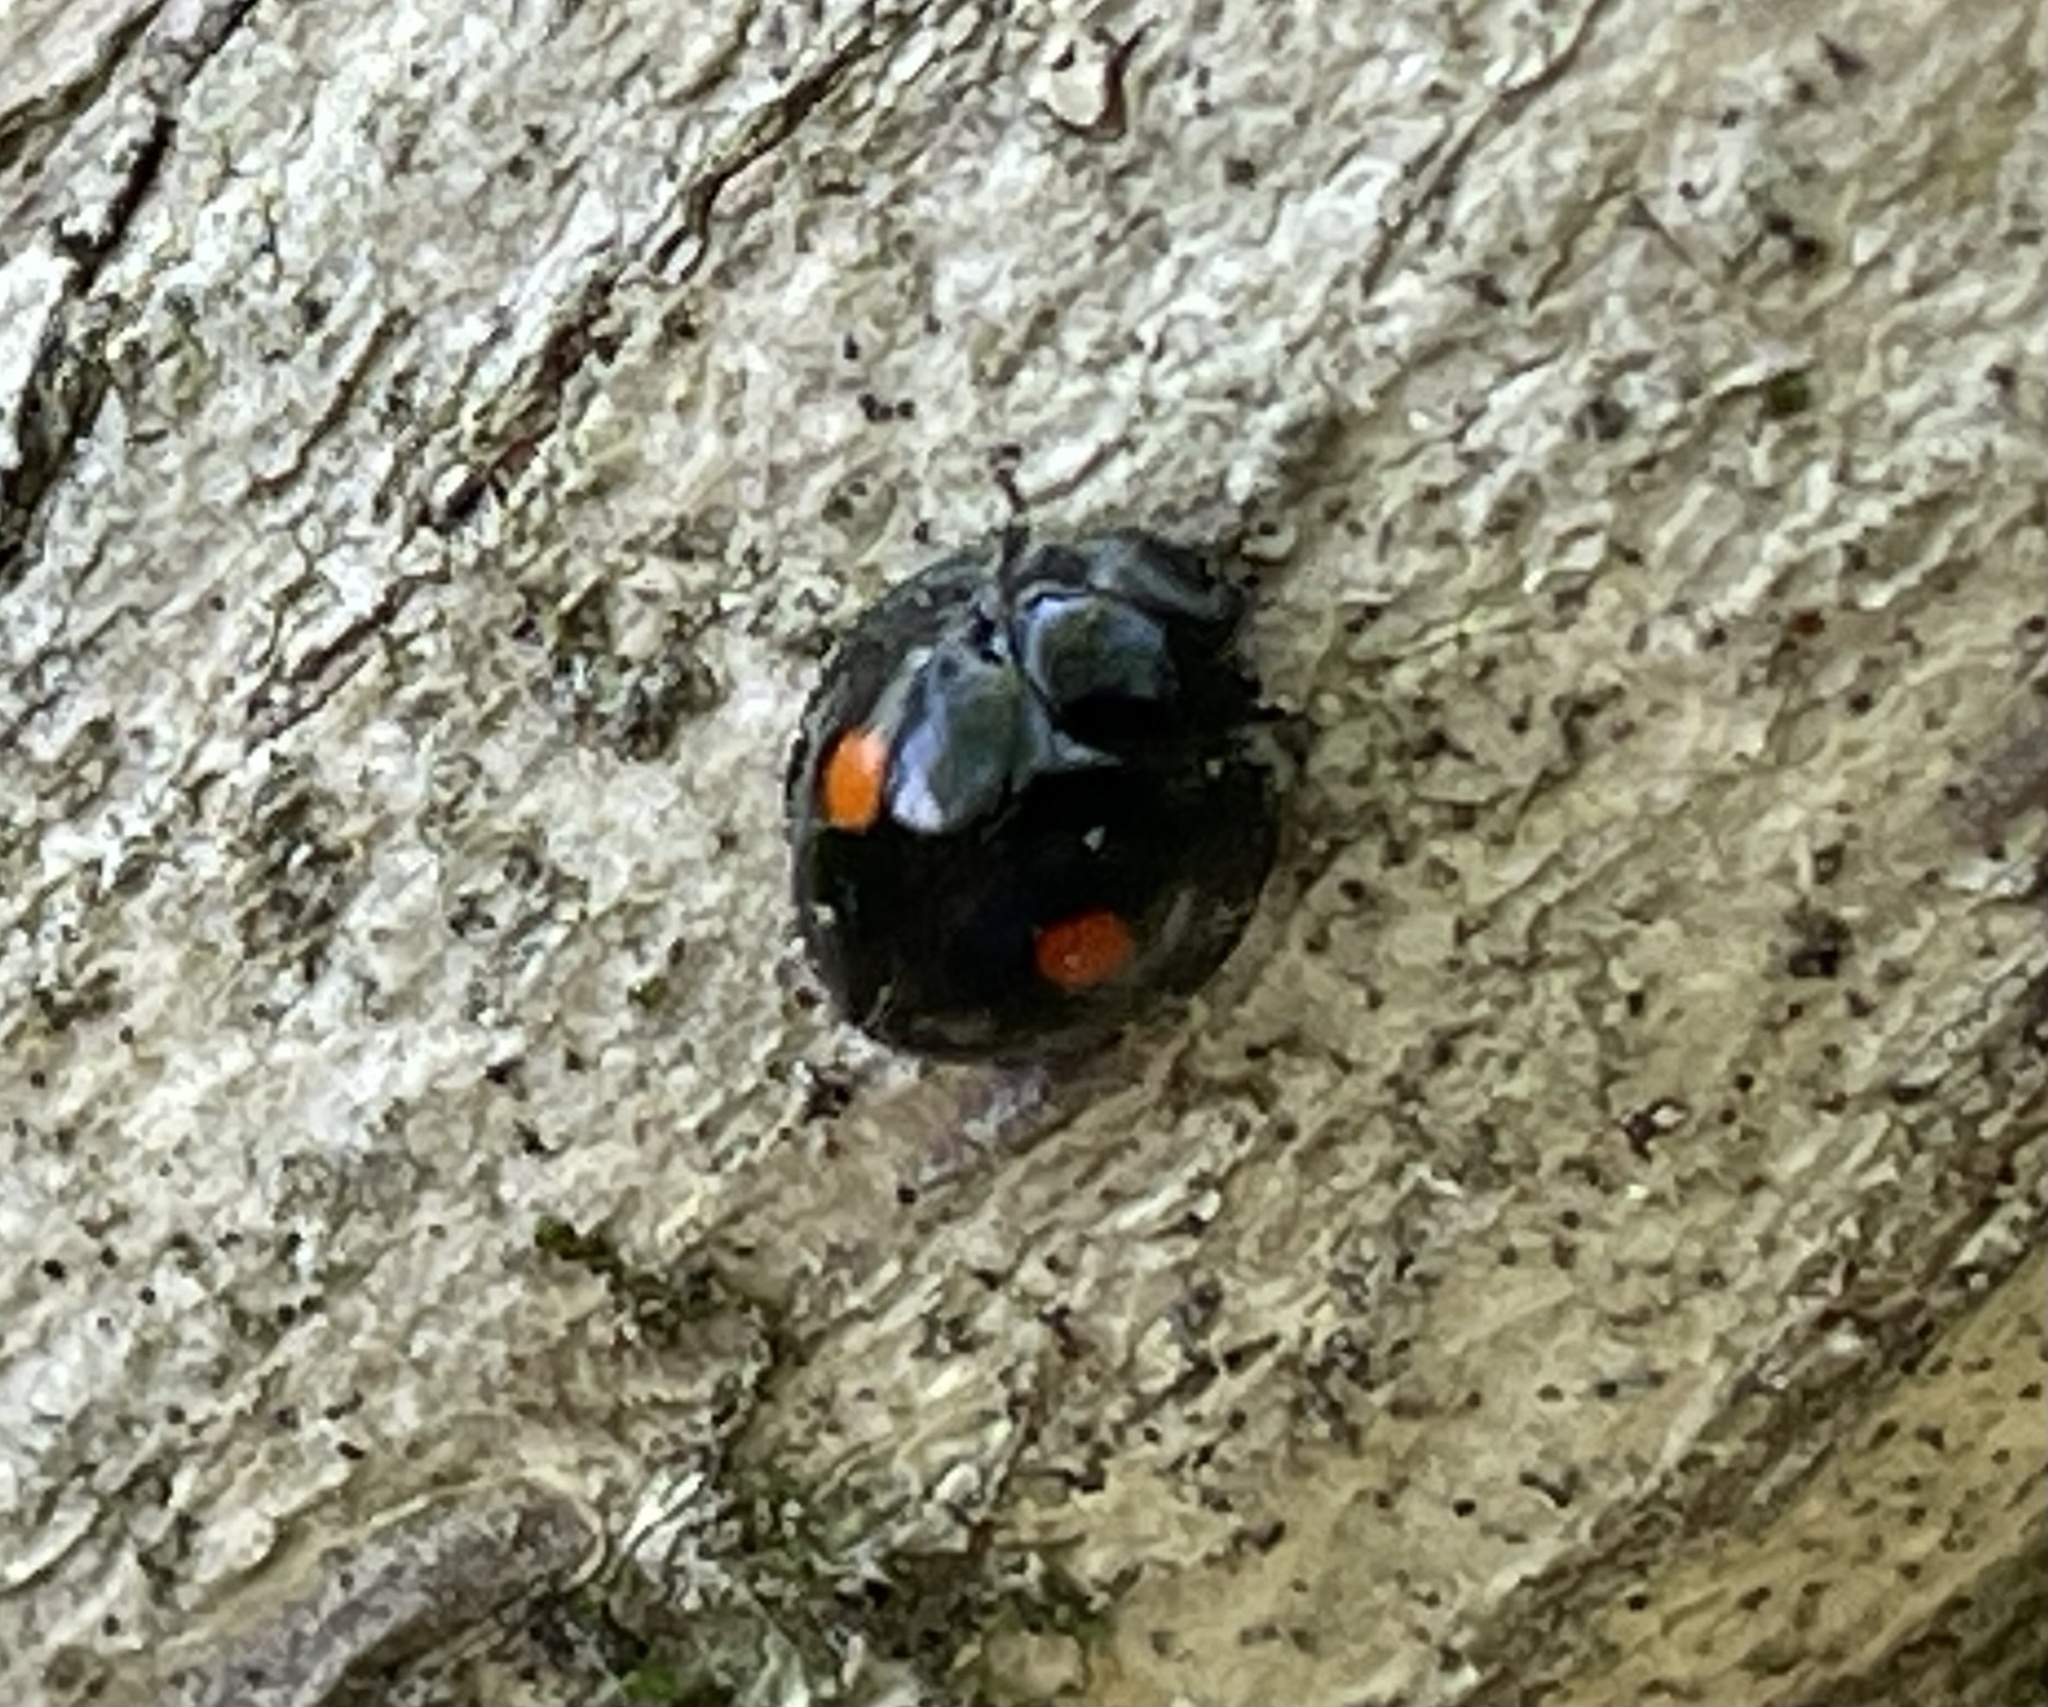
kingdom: Animalia
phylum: Arthropoda
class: Insecta
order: Coleoptera
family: Coccinellidae
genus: Chilocorus
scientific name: Chilocorus stigma
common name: Twicestabbed lady beetle
